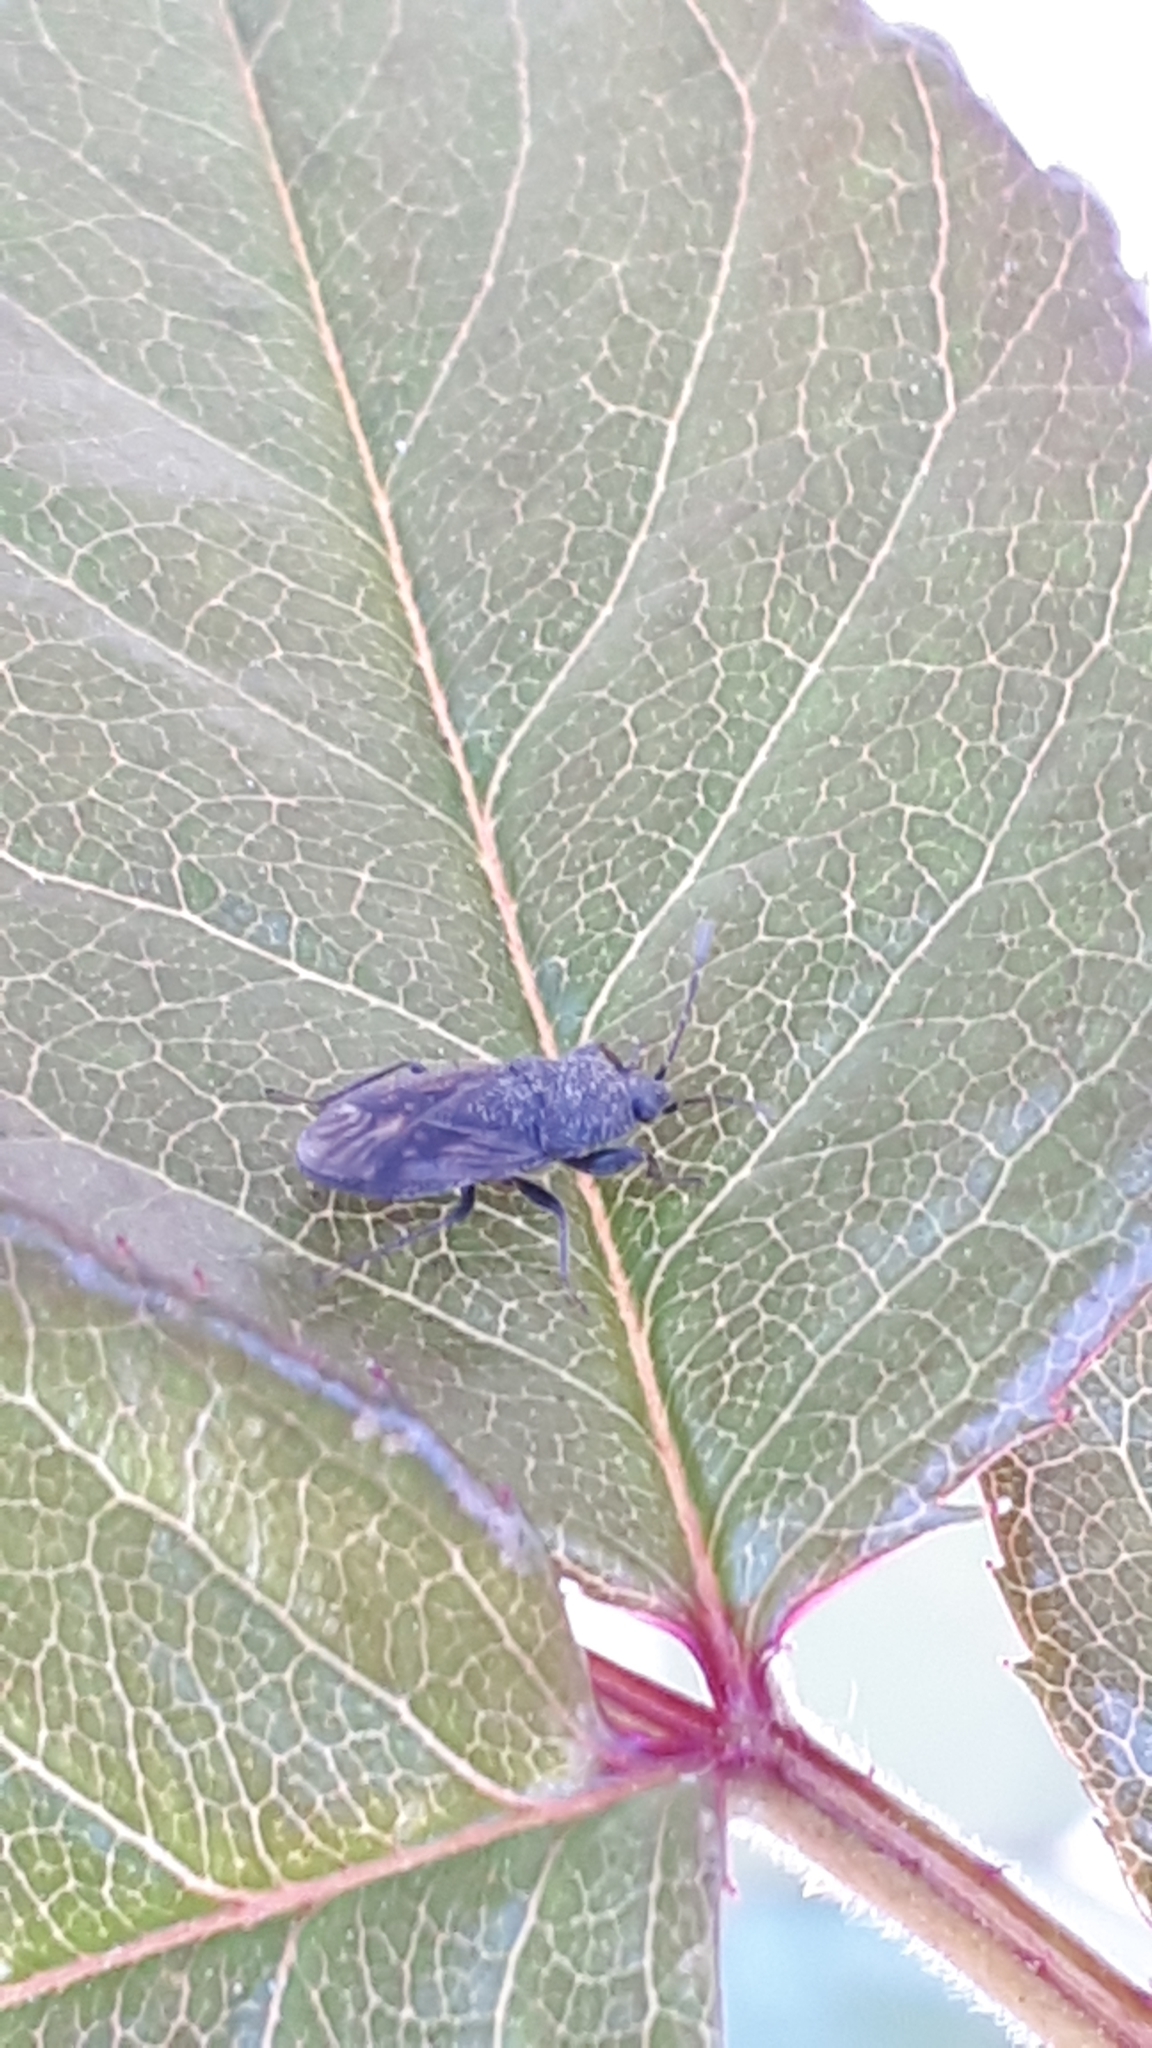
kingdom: Animalia
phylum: Arthropoda
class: Insecta
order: Hemiptera
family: Rhyparochromidae
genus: Megalonotus
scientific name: Megalonotus sabulicola
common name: Seed bug
